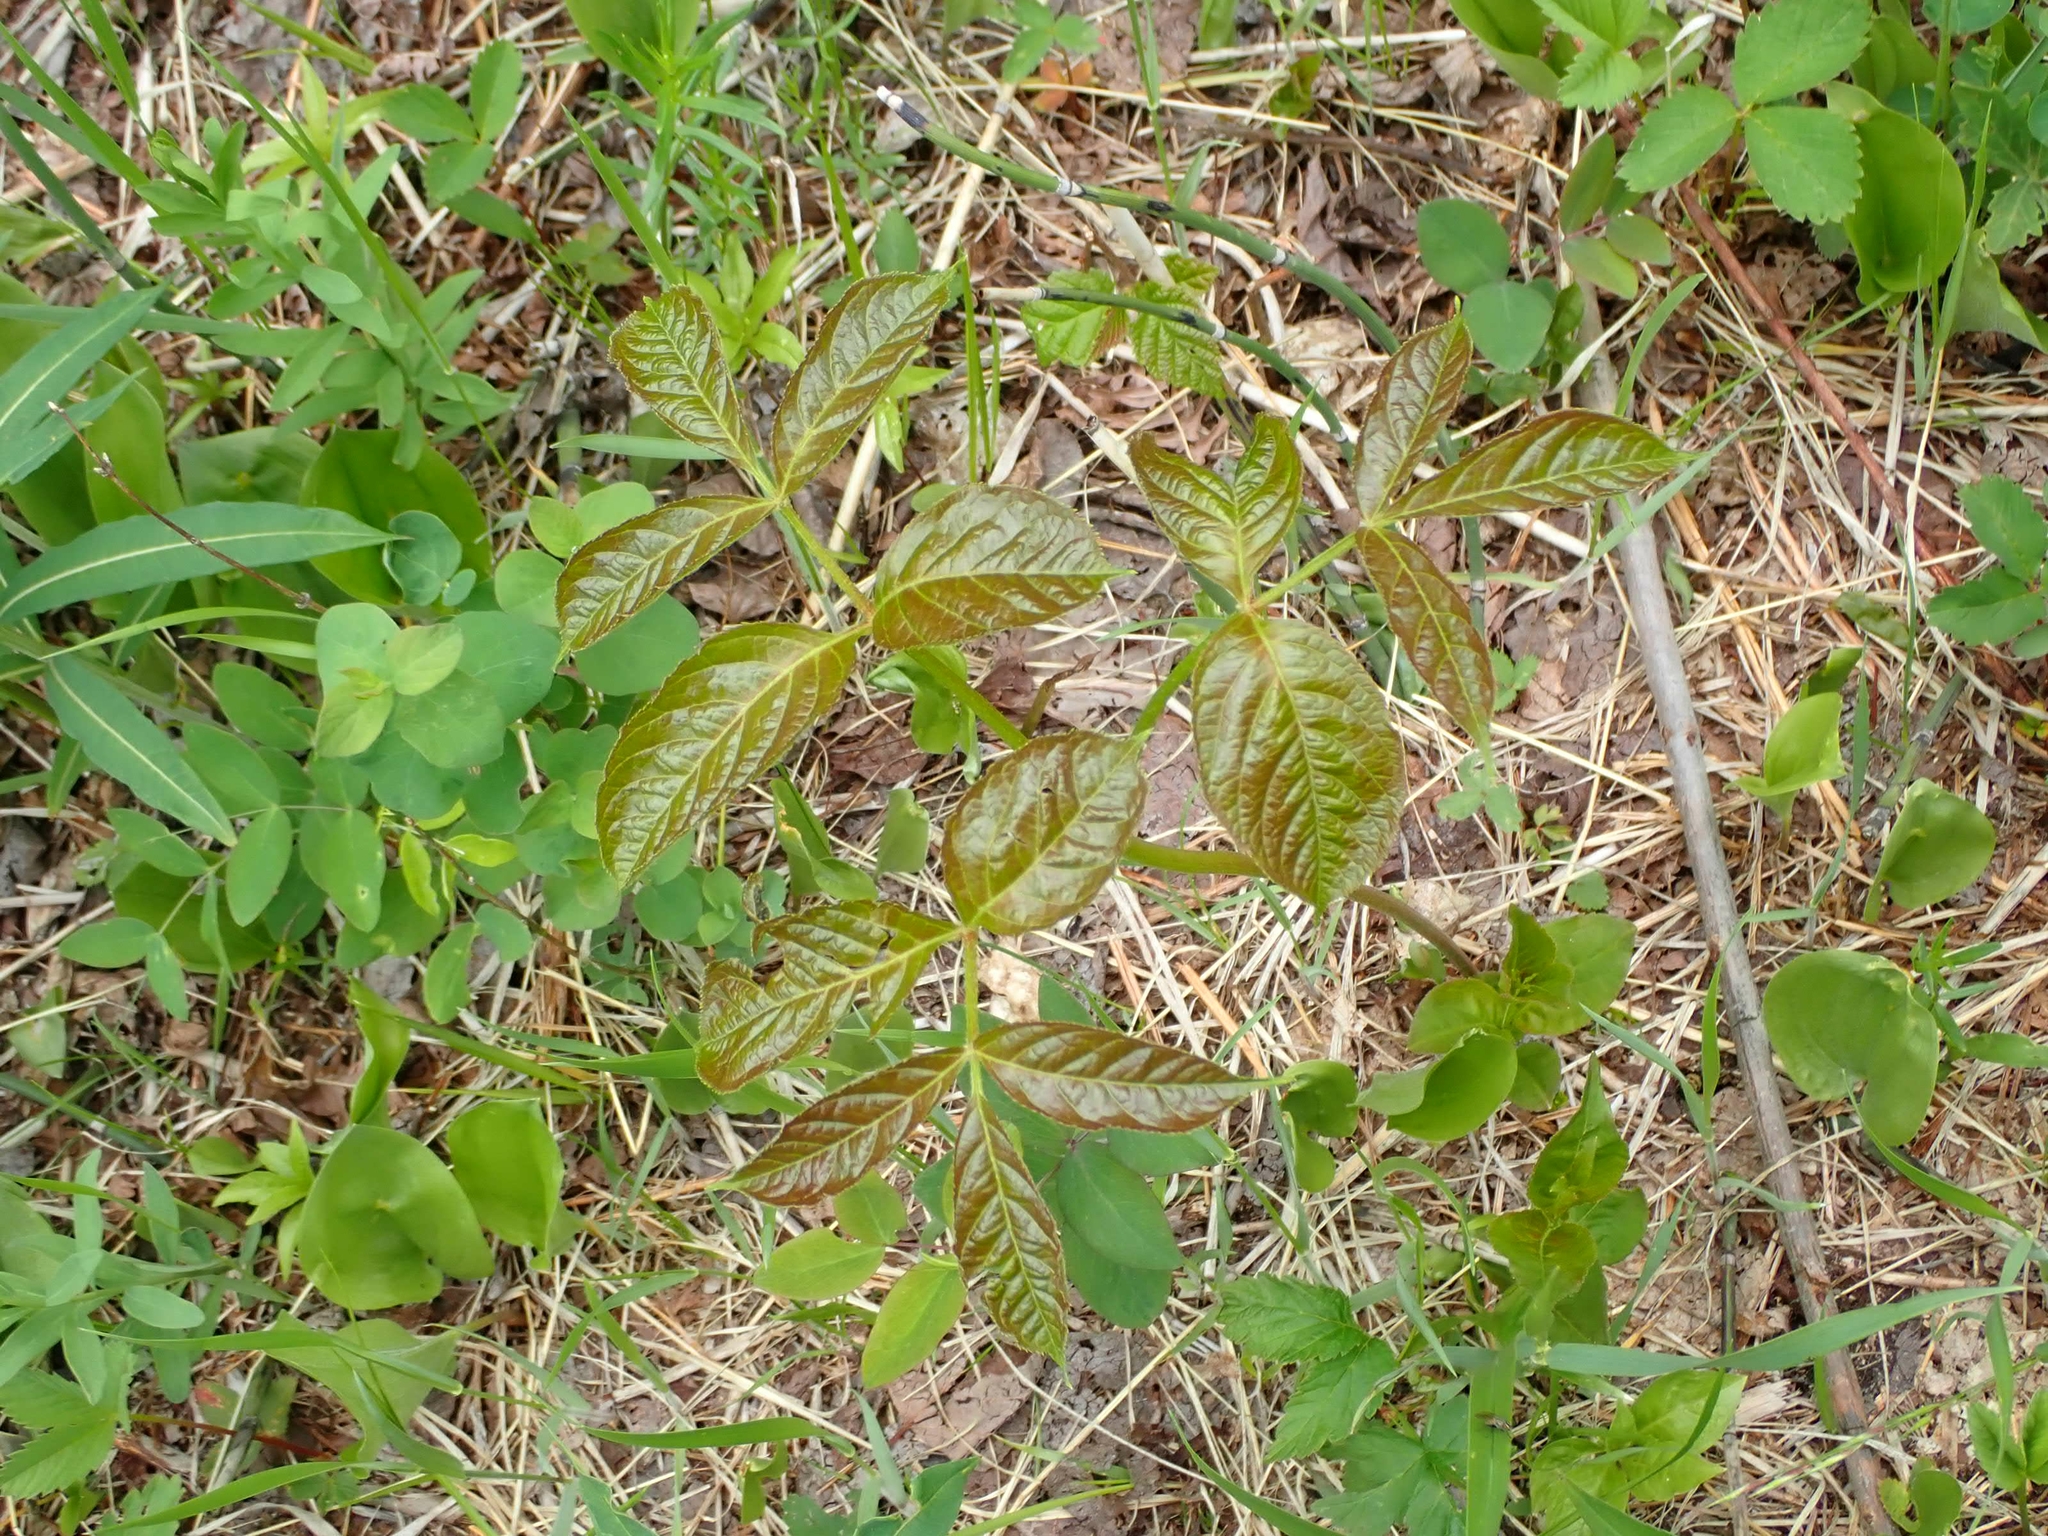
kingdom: Plantae
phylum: Tracheophyta
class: Magnoliopsida
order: Apiales
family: Araliaceae
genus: Aralia
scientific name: Aralia nudicaulis
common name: Wild sarsaparilla
